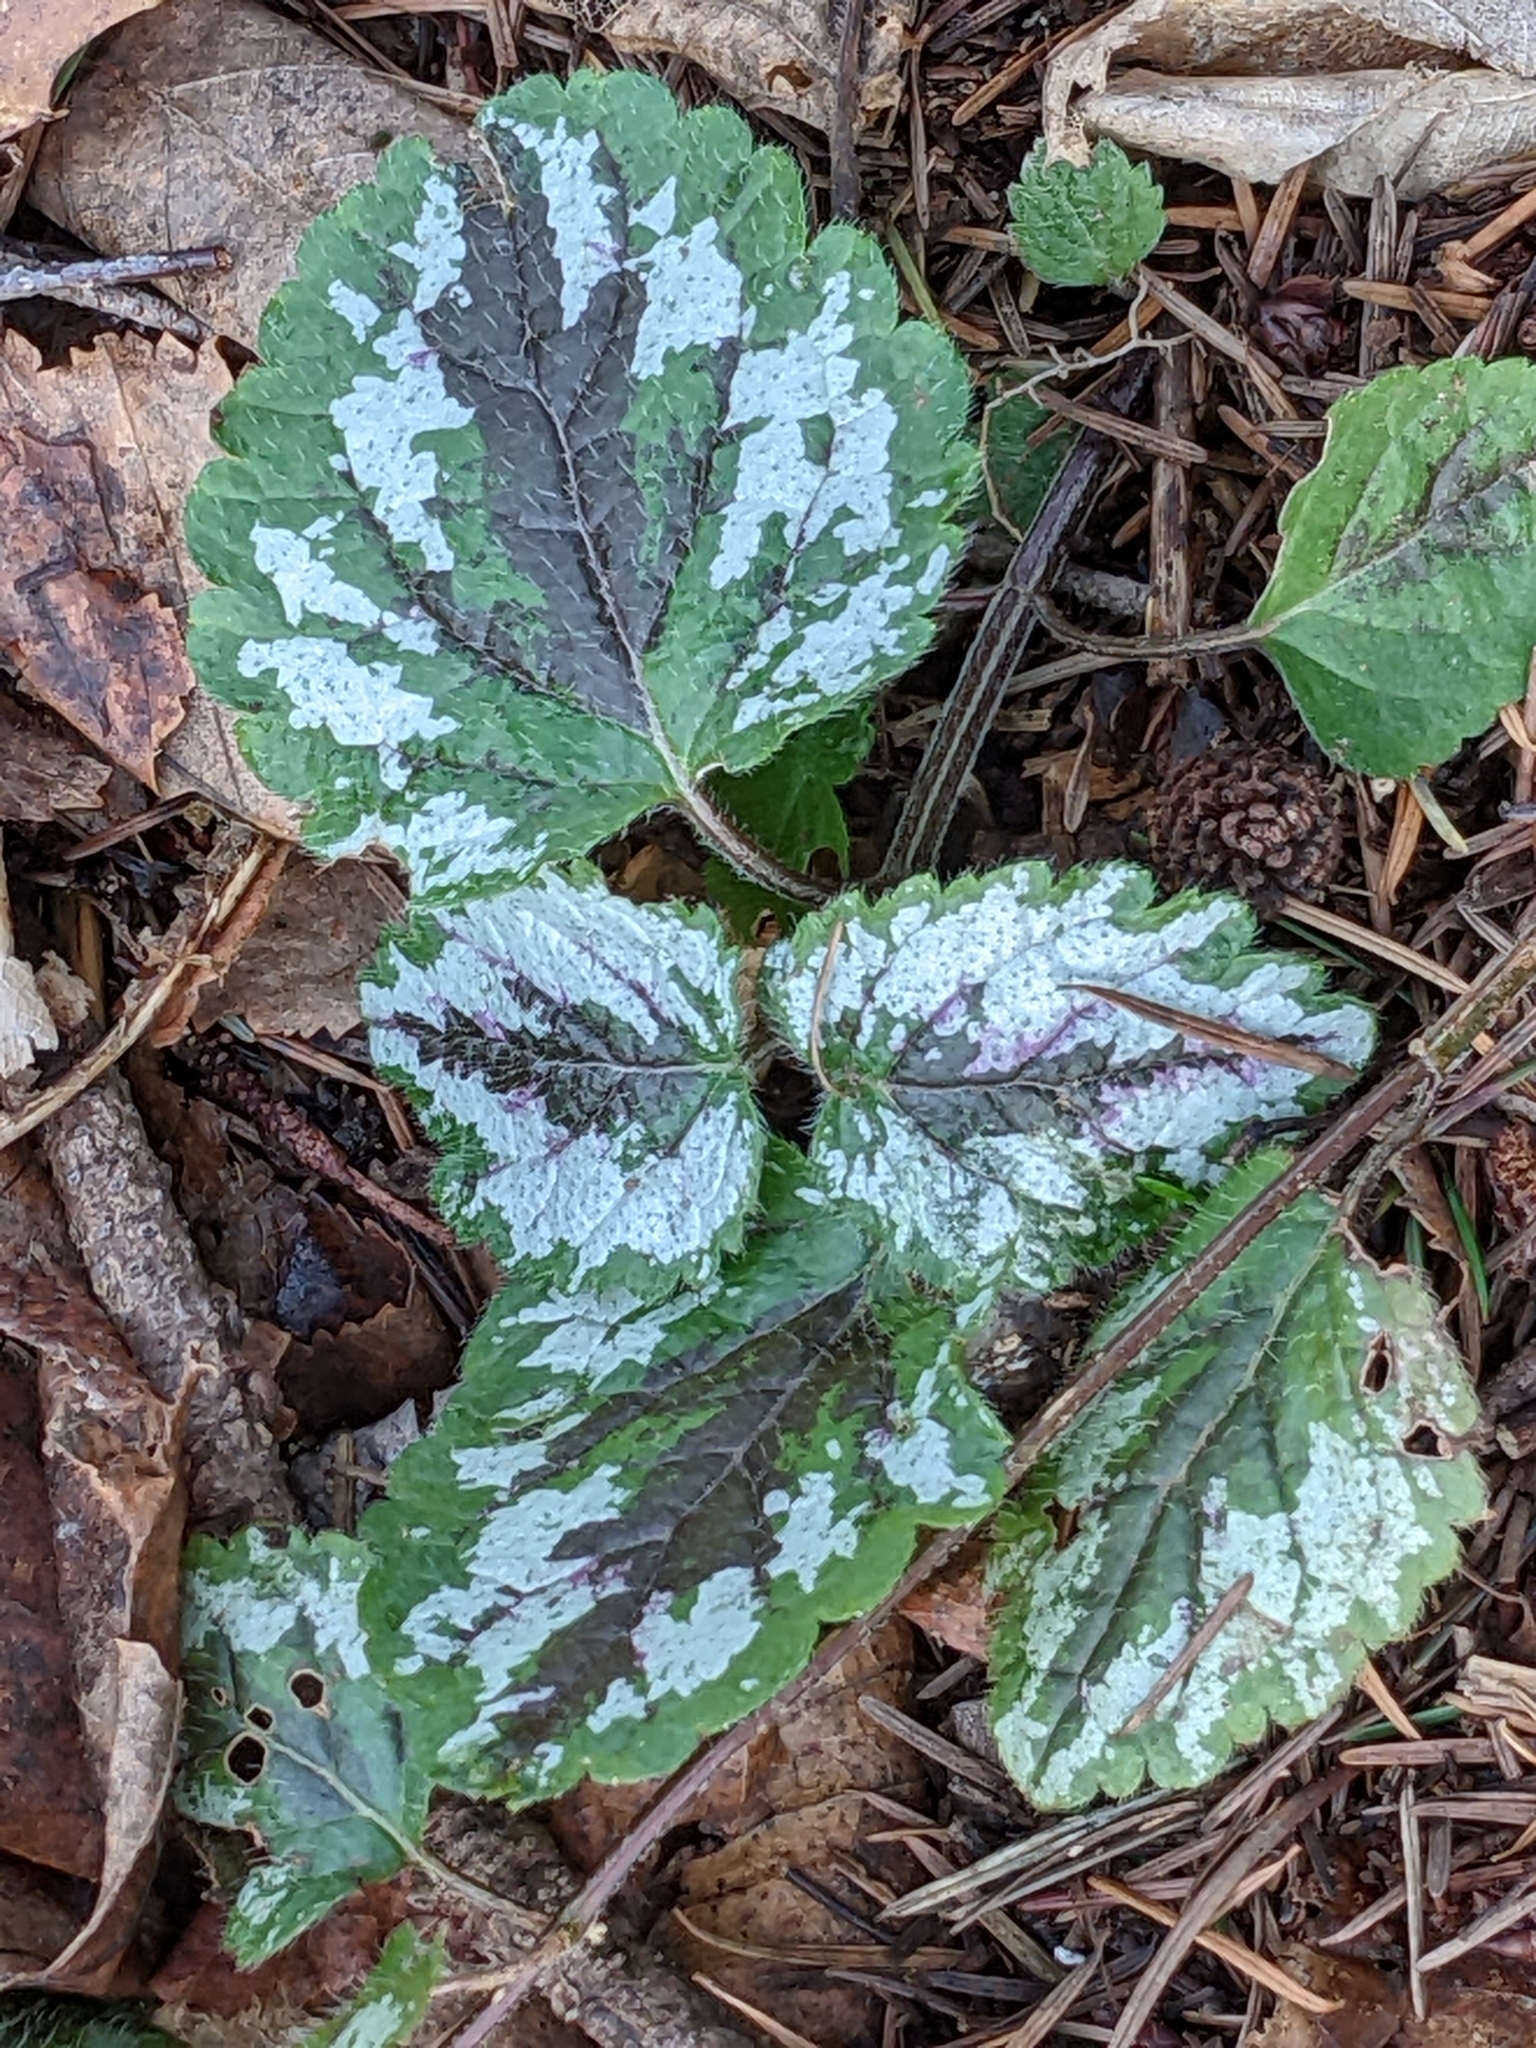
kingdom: Plantae
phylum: Tracheophyta
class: Magnoliopsida
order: Lamiales
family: Lamiaceae
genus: Lamium
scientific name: Lamium galeobdolon
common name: Yellow archangel
